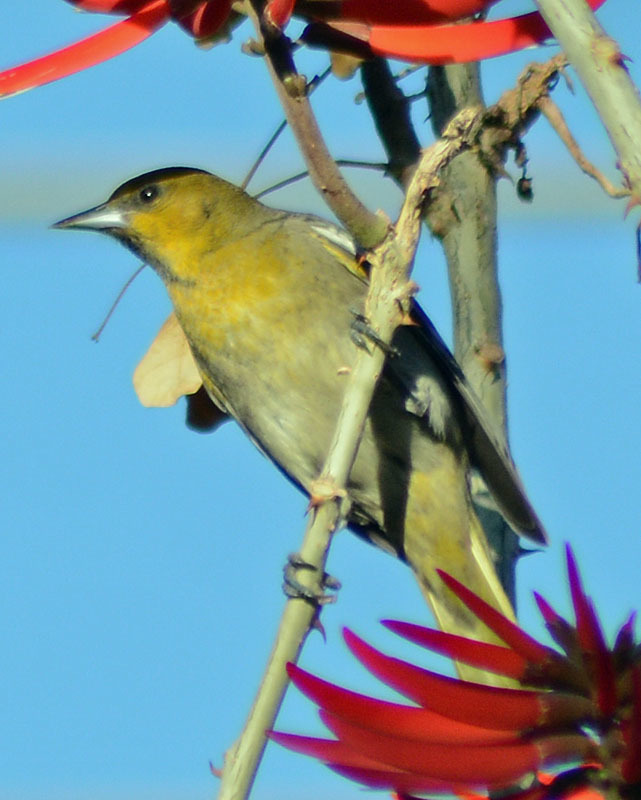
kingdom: Animalia
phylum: Chordata
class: Aves
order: Passeriformes
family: Icteridae
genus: Icterus
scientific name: Icterus abeillei
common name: Black-backed oriole
